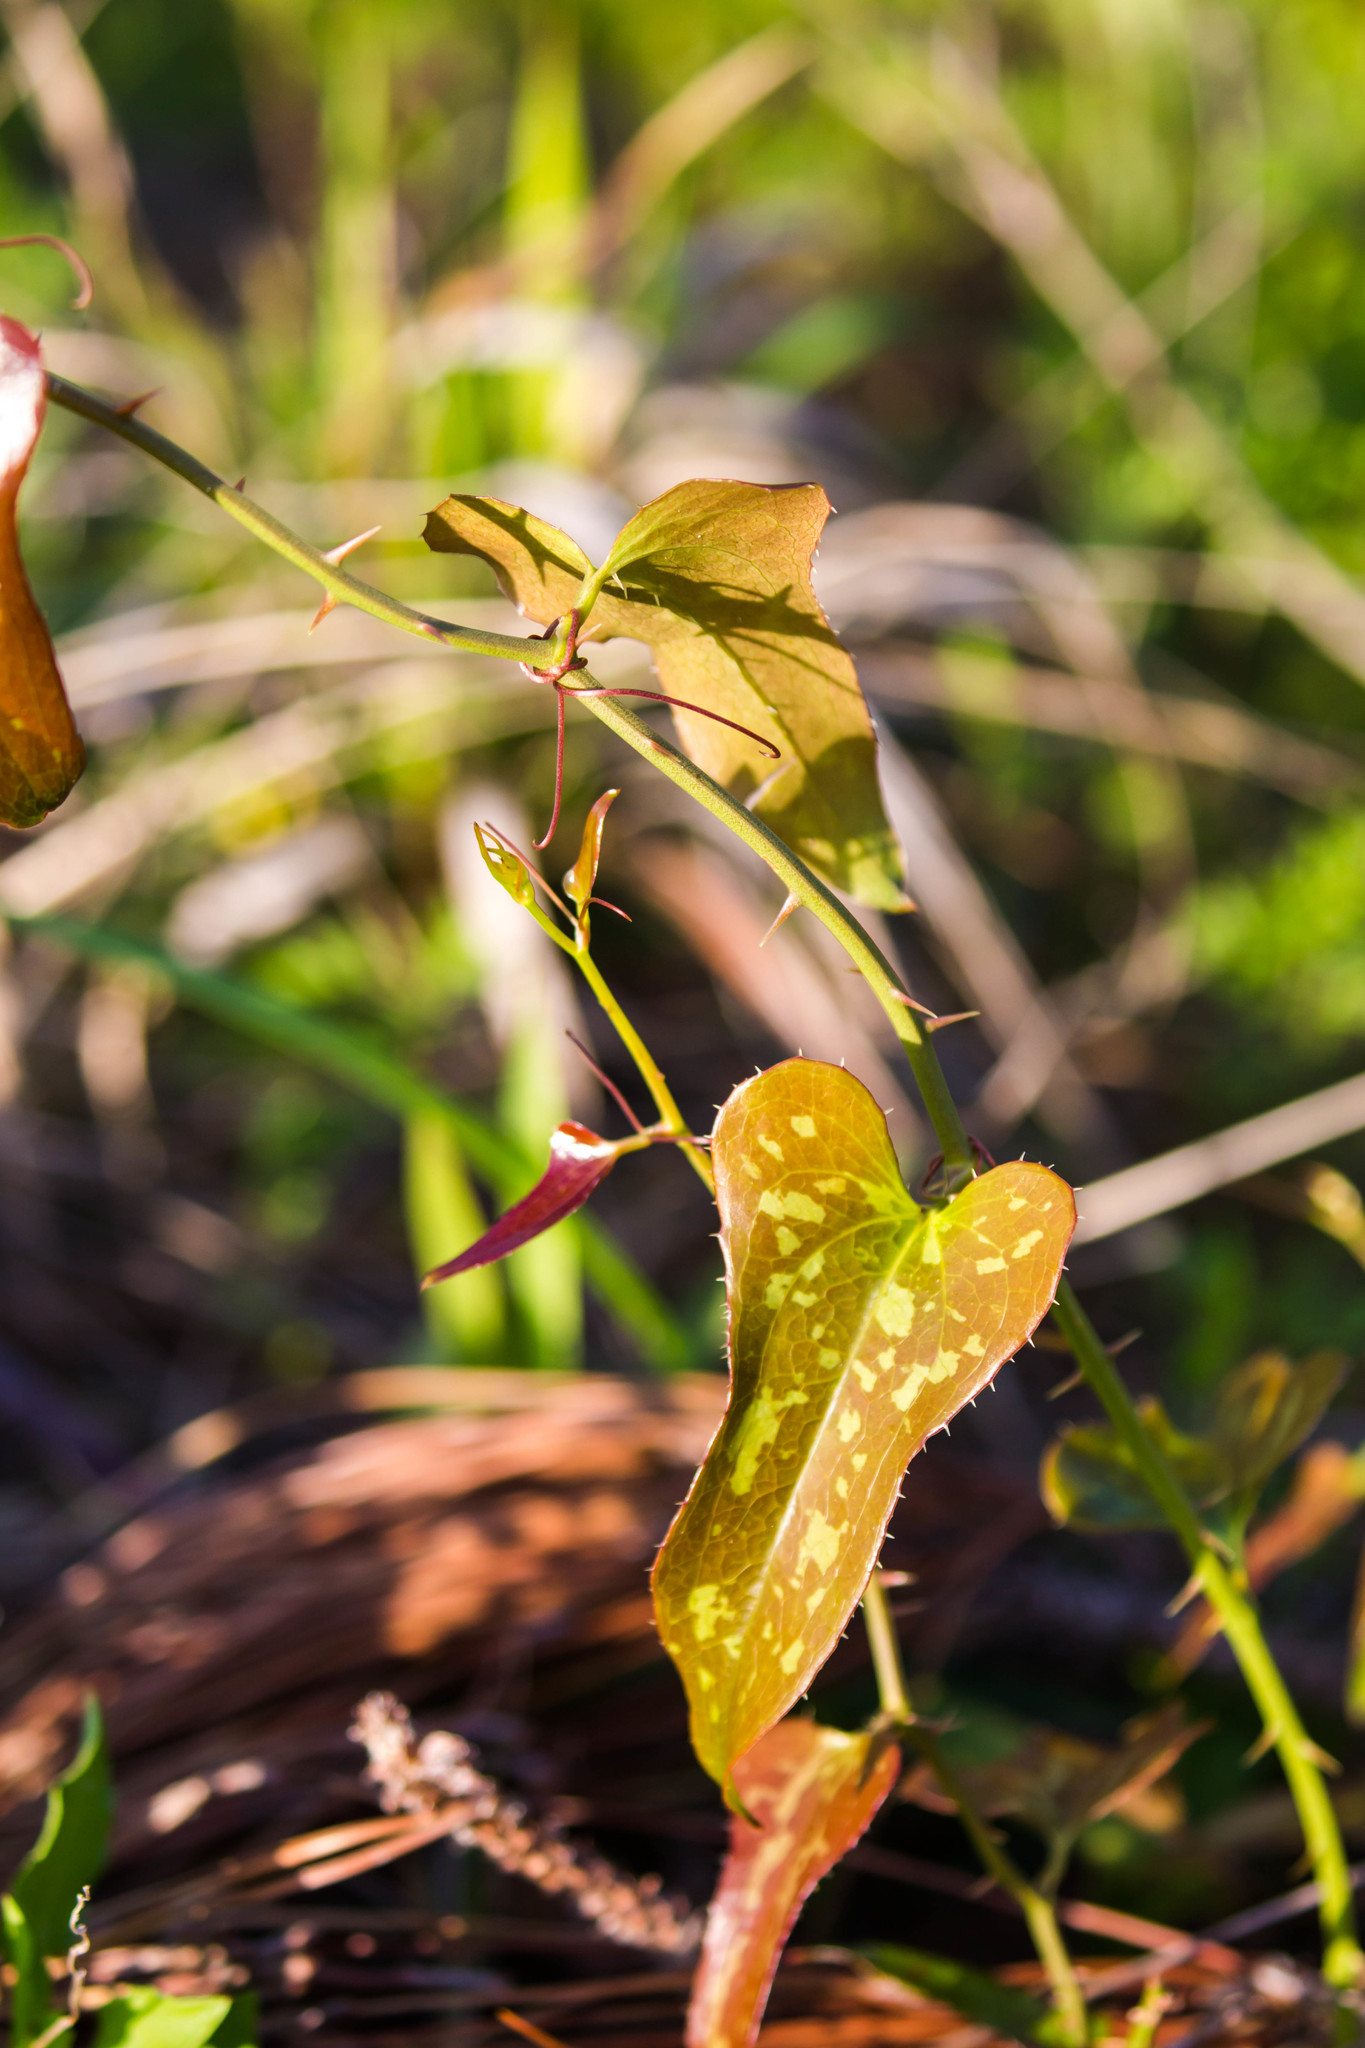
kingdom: Plantae
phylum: Tracheophyta
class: Liliopsida
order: Liliales
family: Smilacaceae
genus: Smilax
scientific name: Smilax bona-nox
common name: Catbrier
